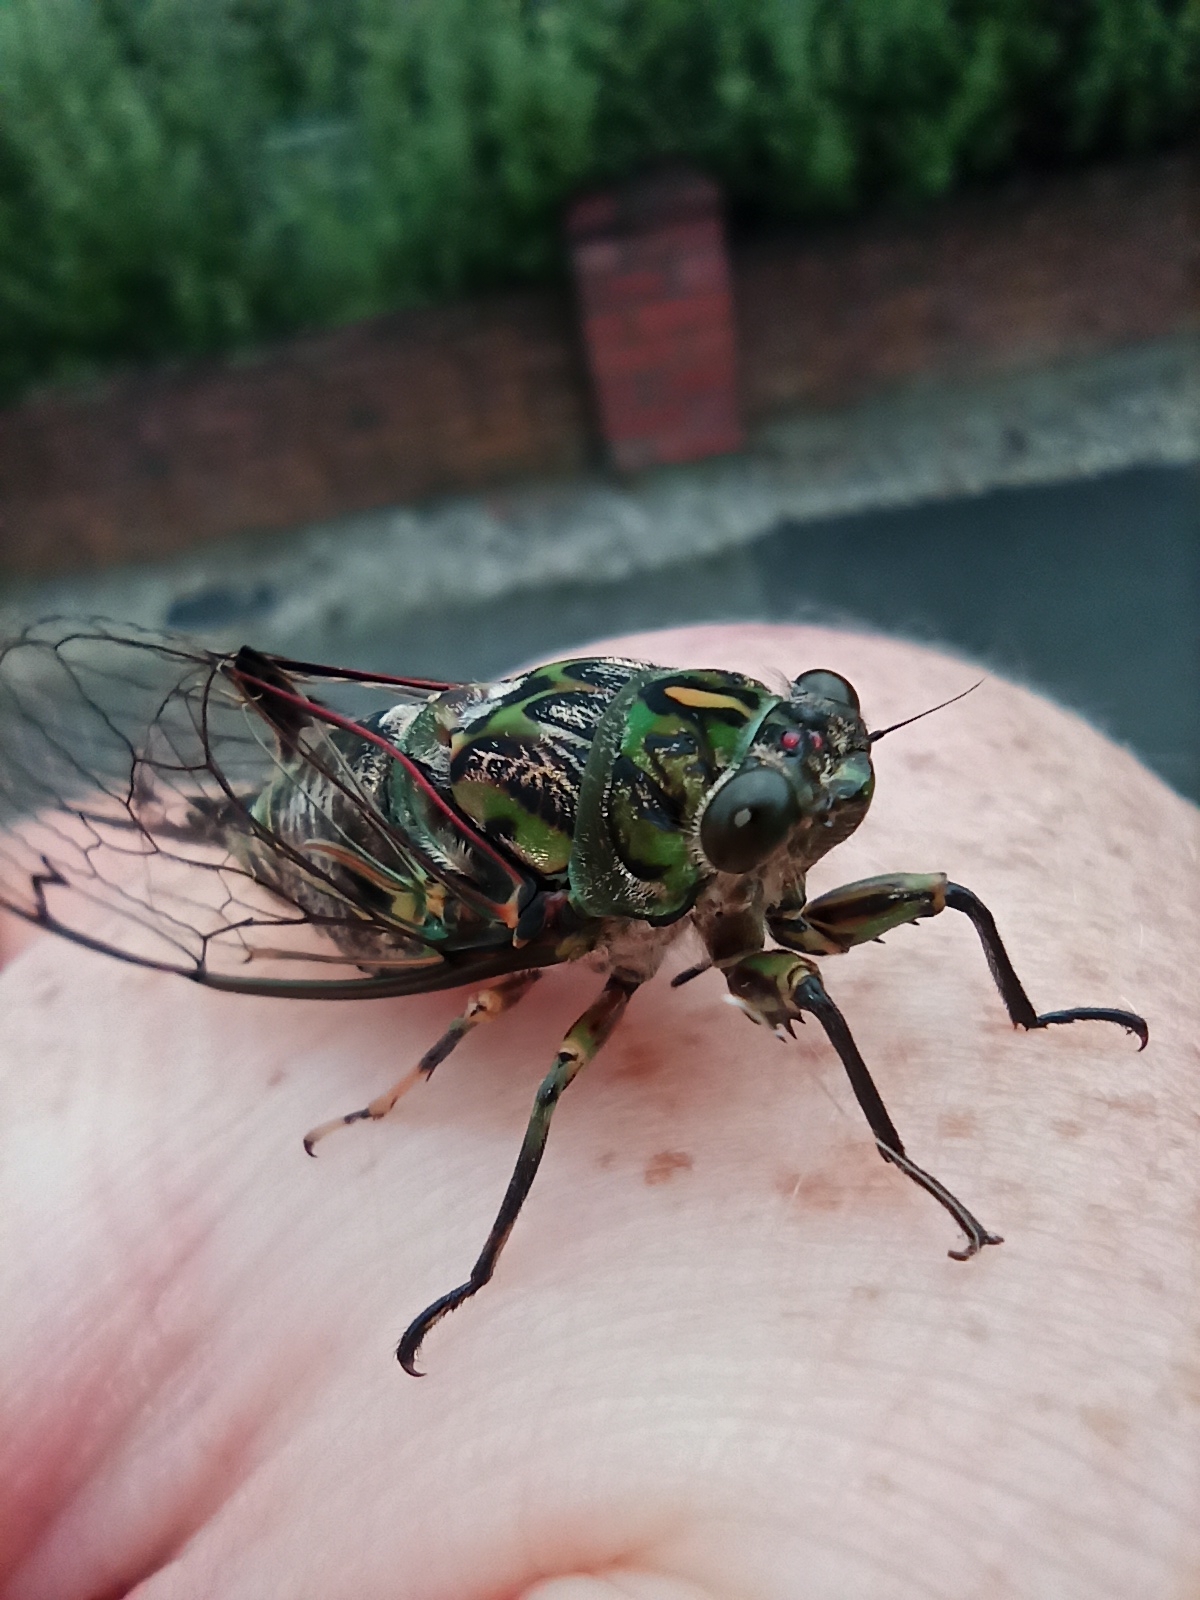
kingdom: Animalia
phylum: Arthropoda
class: Insecta
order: Hemiptera
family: Cicadidae
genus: Amphipsalta
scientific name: Amphipsalta zelandica
